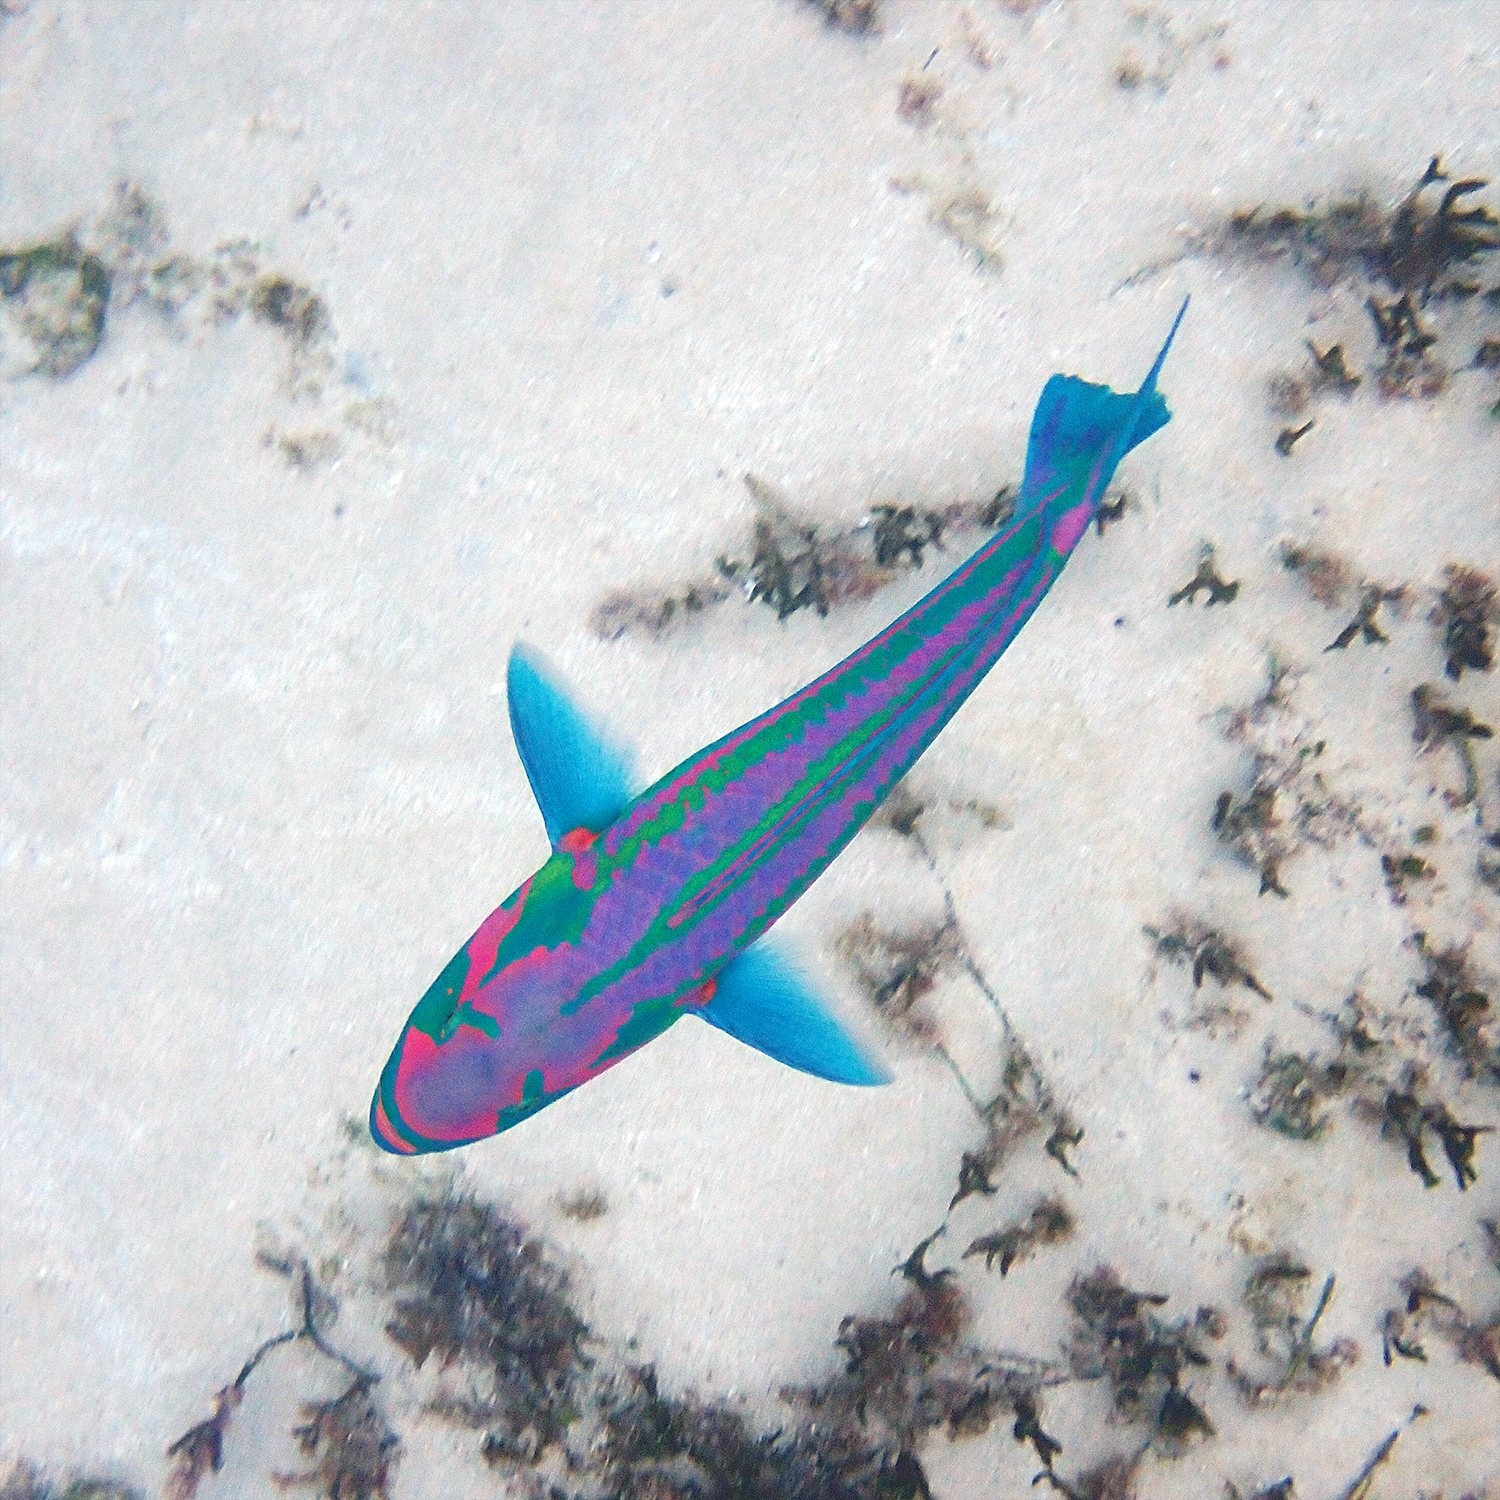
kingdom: Animalia
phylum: Chordata
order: Perciformes
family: Labridae
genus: Thalassoma
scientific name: Thalassoma purpureum
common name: Parrotfish
